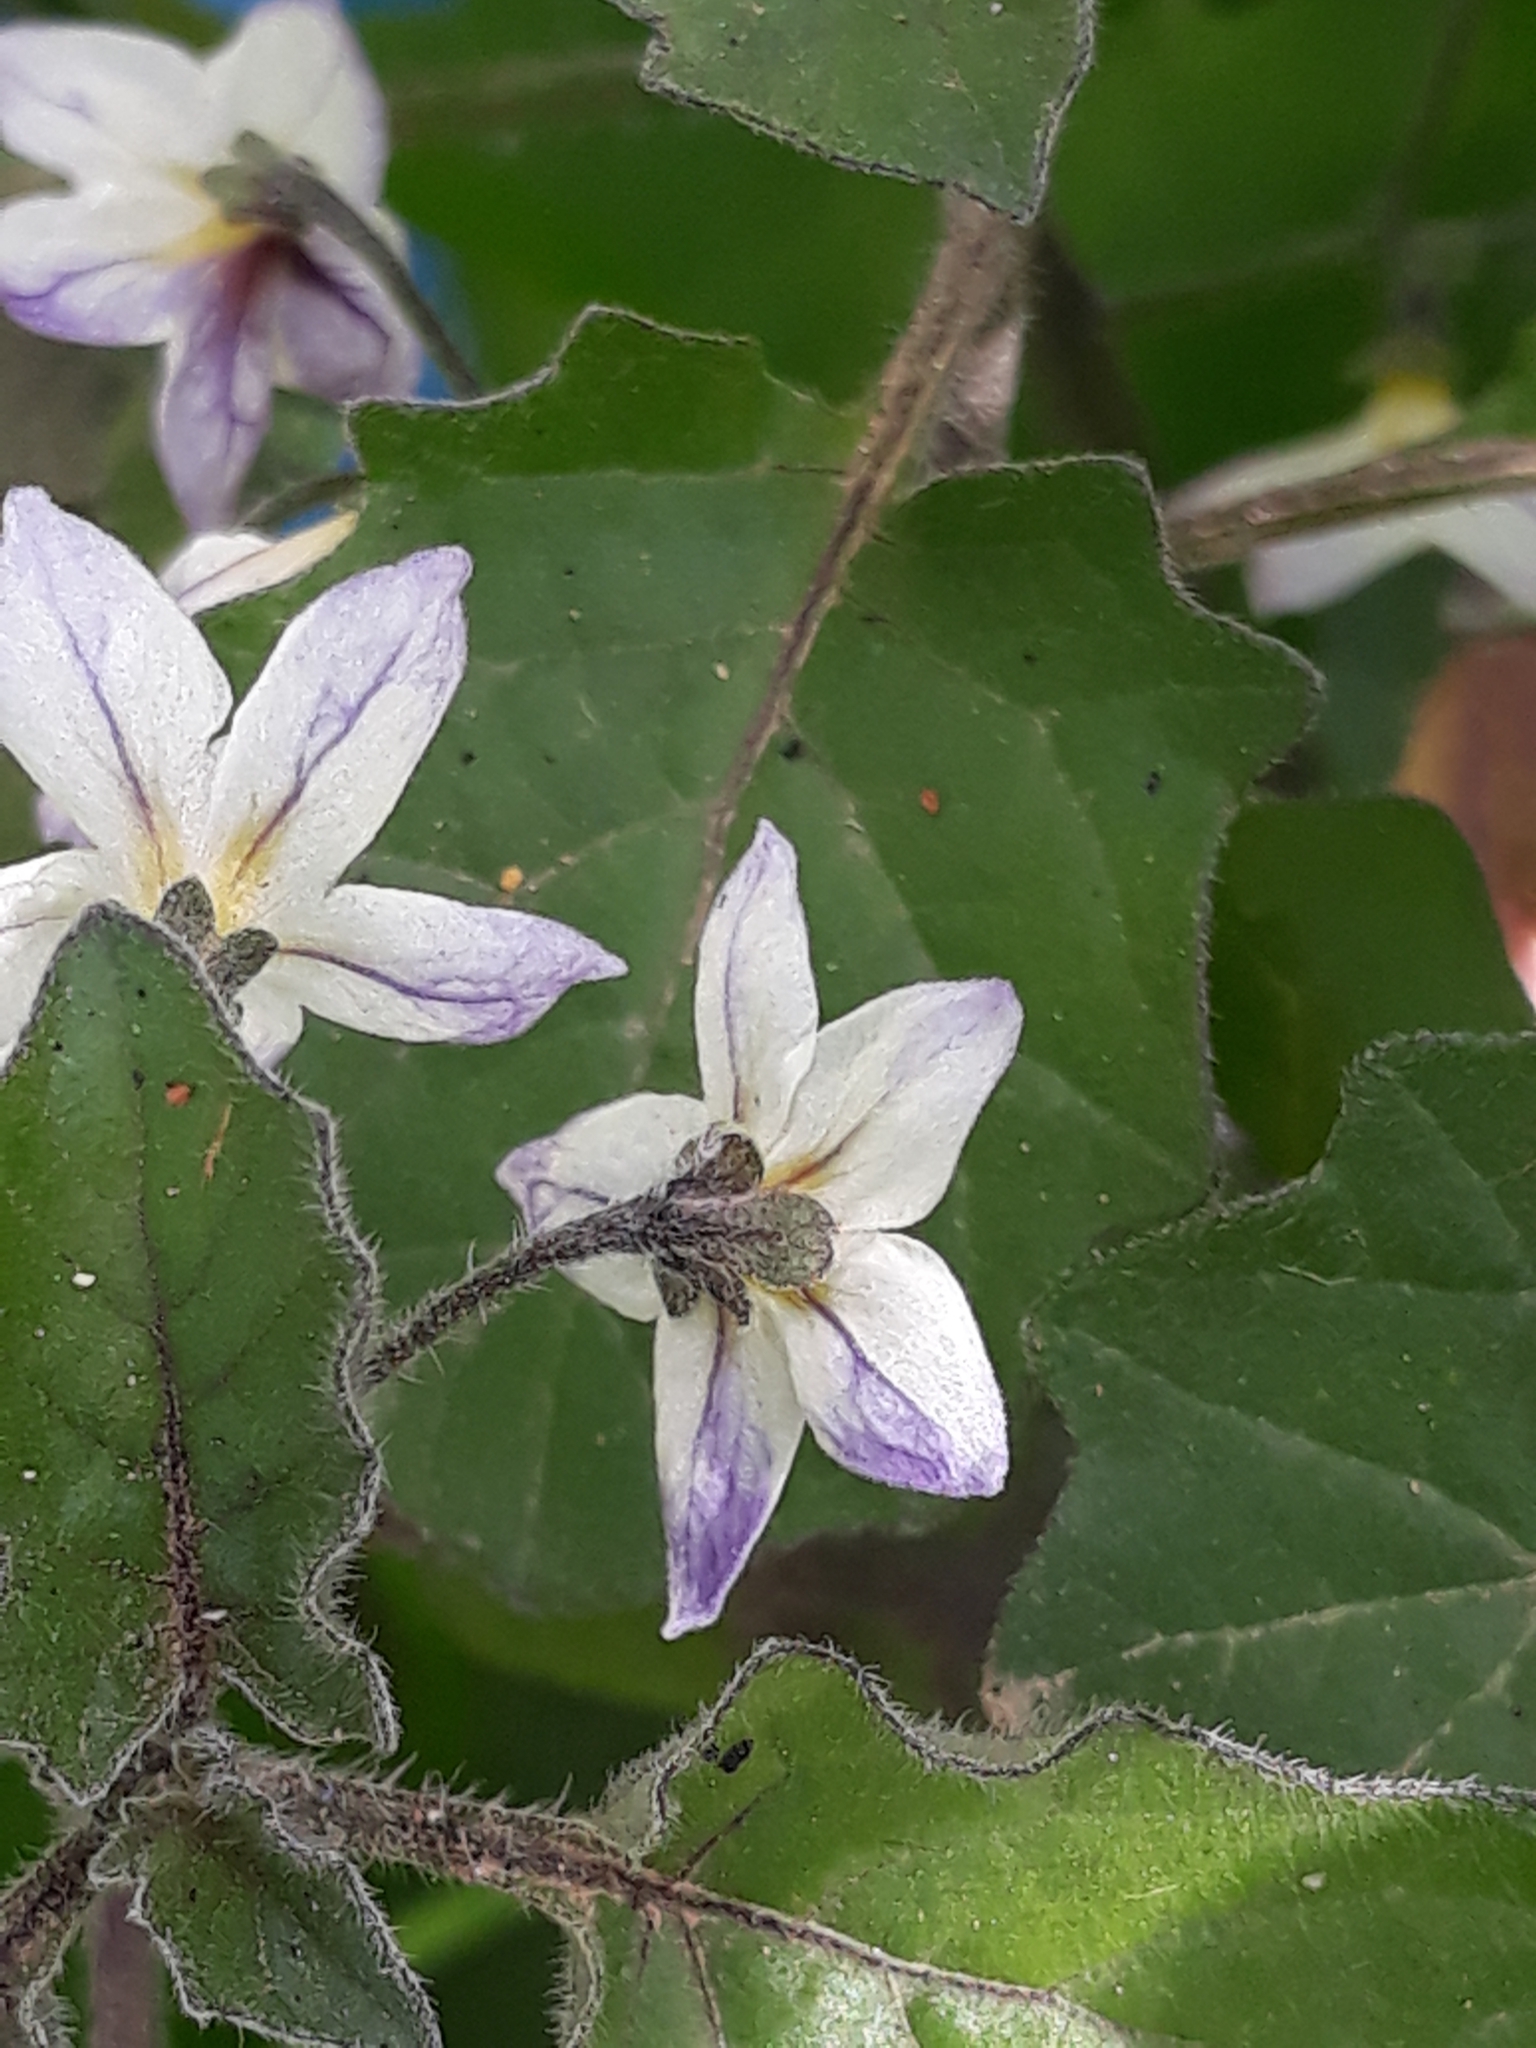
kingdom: Plantae
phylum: Tracheophyta
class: Magnoliopsida
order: Solanales
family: Solanaceae
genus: Solanum
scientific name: Solanum villosum
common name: Red nightshade
